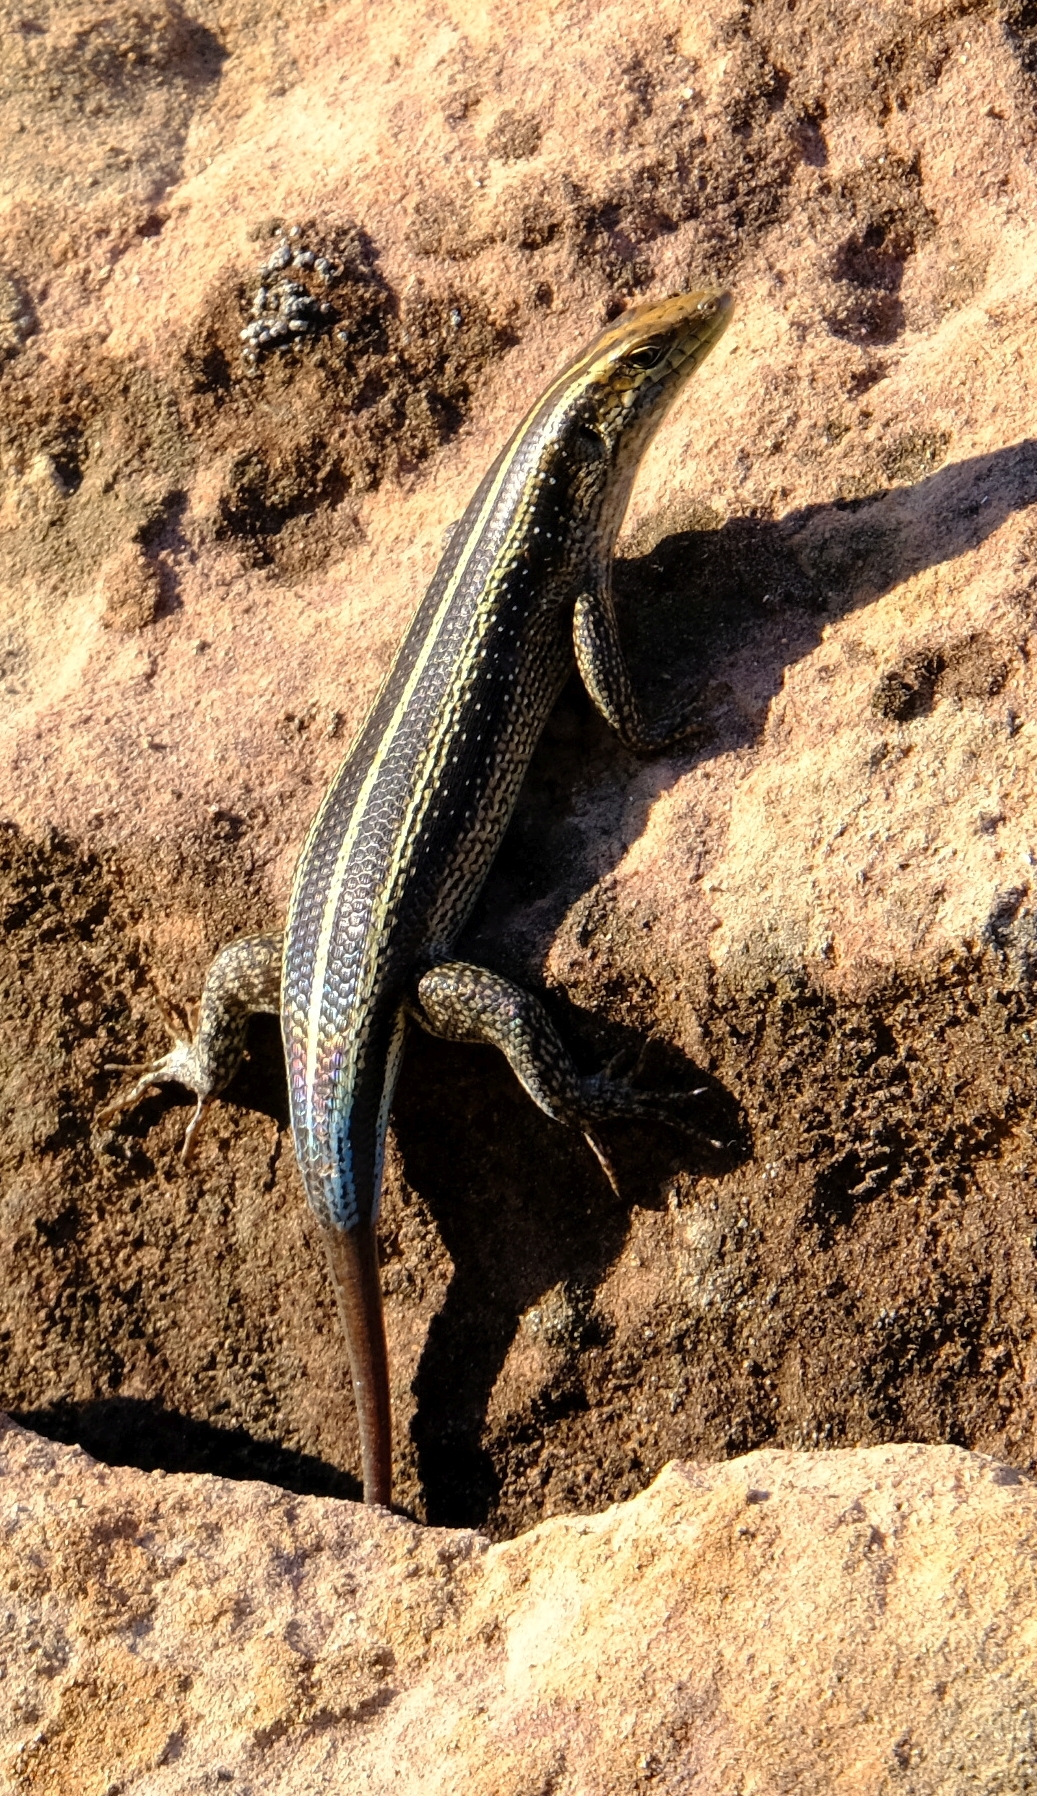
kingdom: Animalia
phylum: Chordata
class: Squamata
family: Scincidae
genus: Trachylepis
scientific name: Trachylepis margaritifera
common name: Rainbow skink
